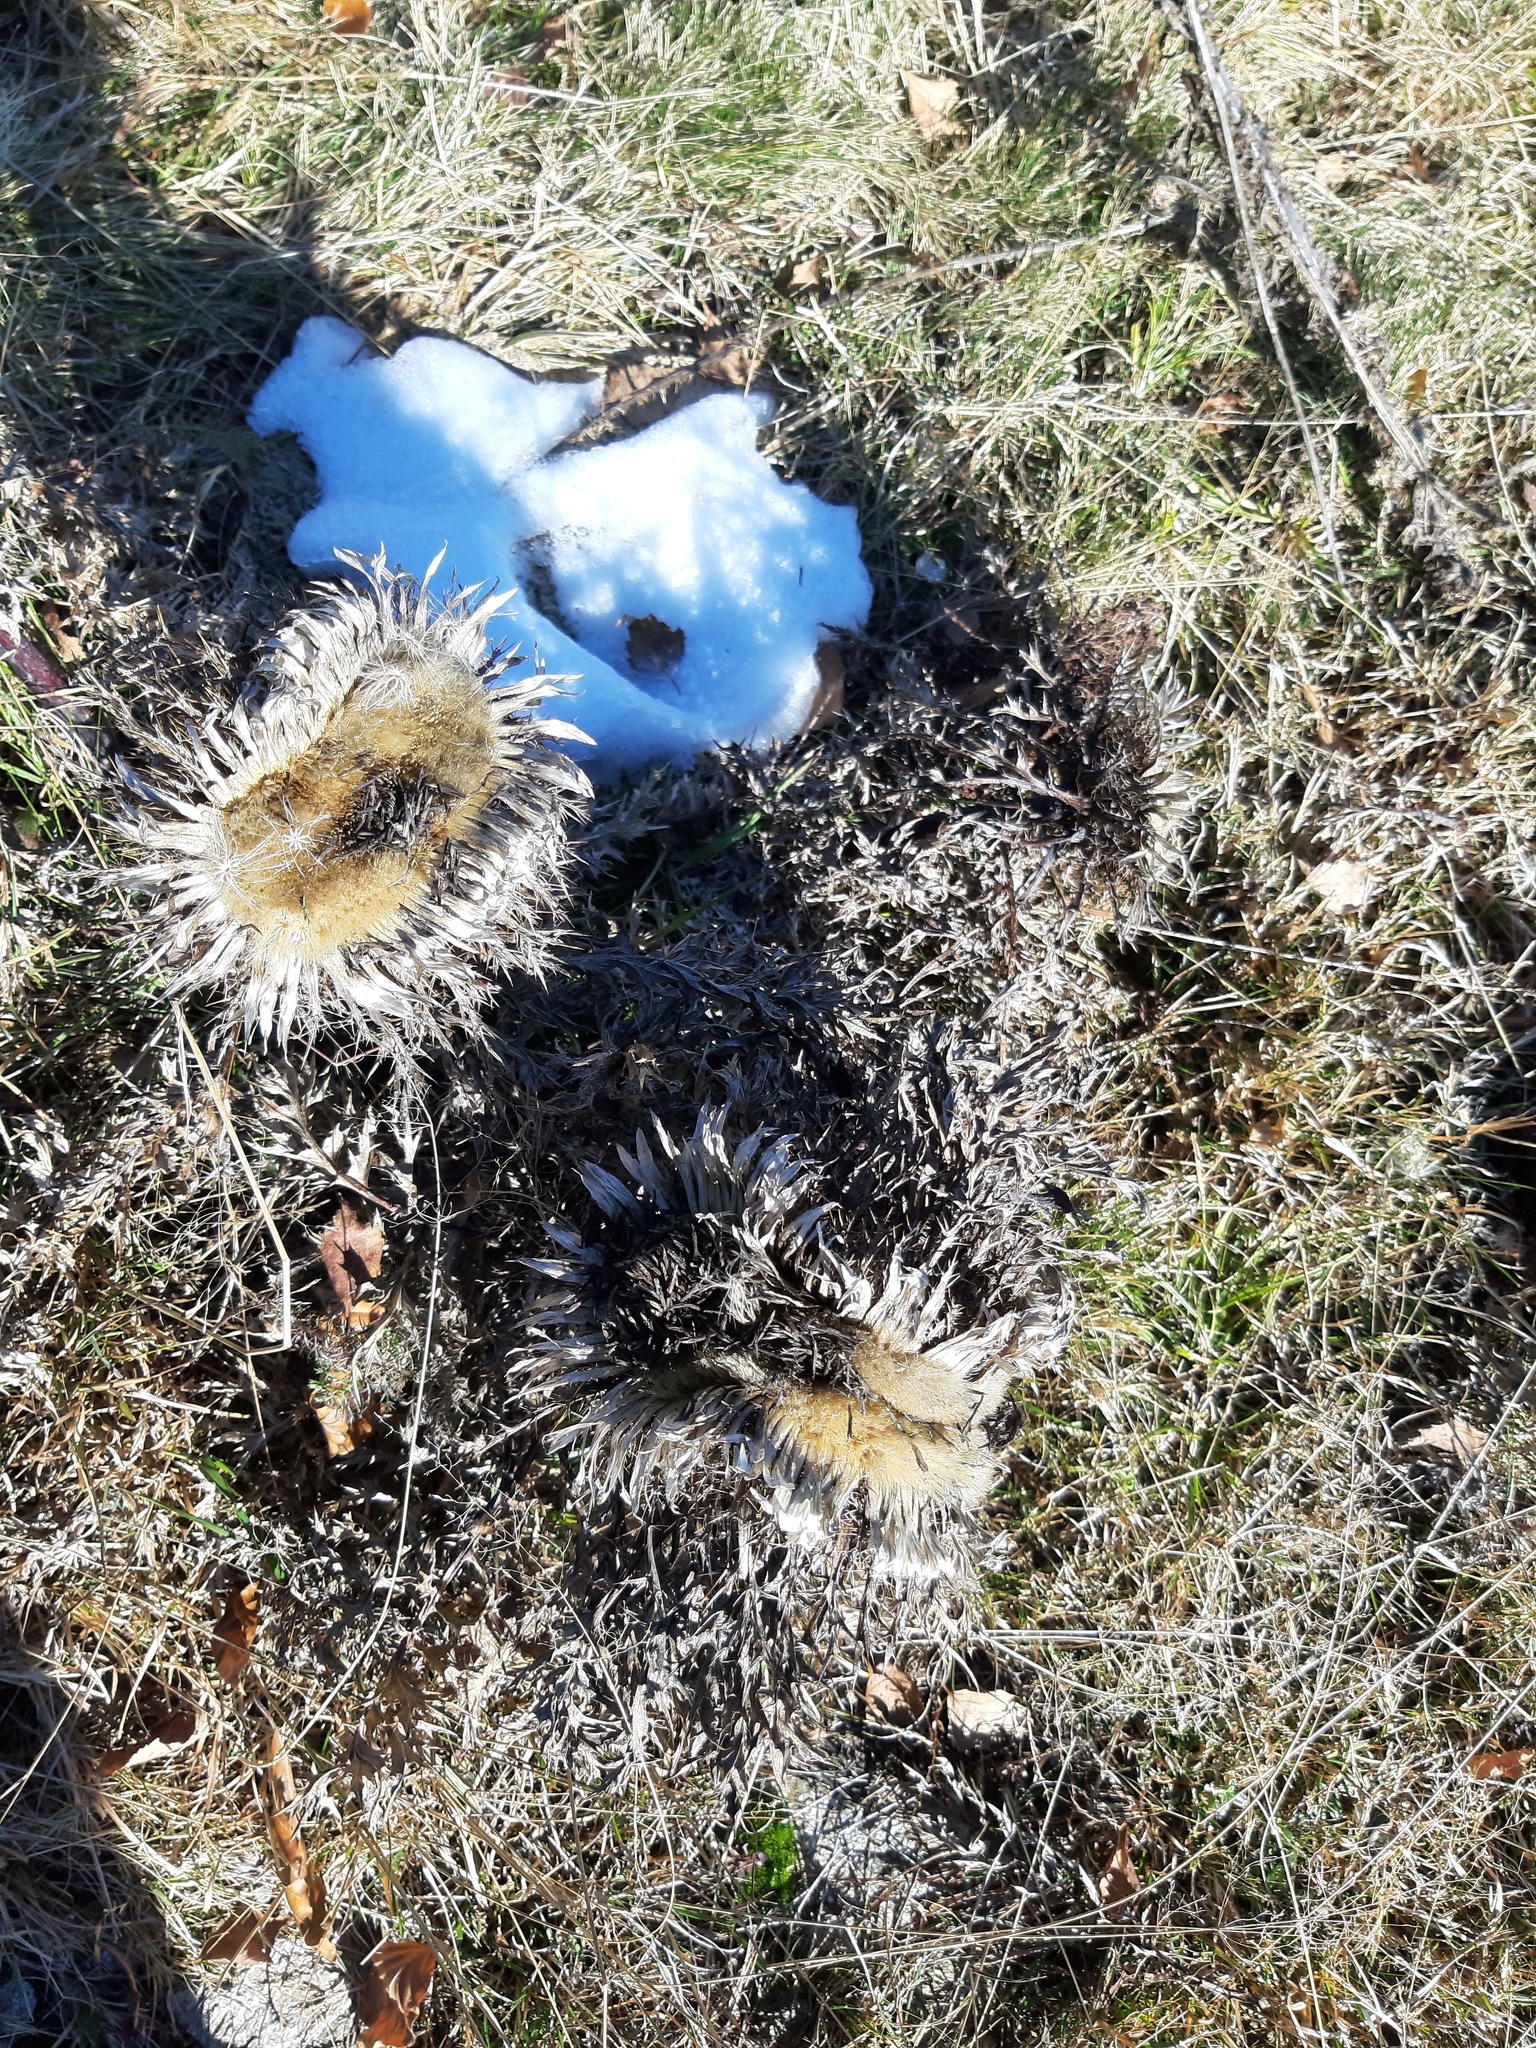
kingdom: Plantae
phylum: Tracheophyta
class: Magnoliopsida
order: Asterales
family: Asteraceae
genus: Carlina
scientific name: Carlina acaulis
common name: Stemless carline thistle
